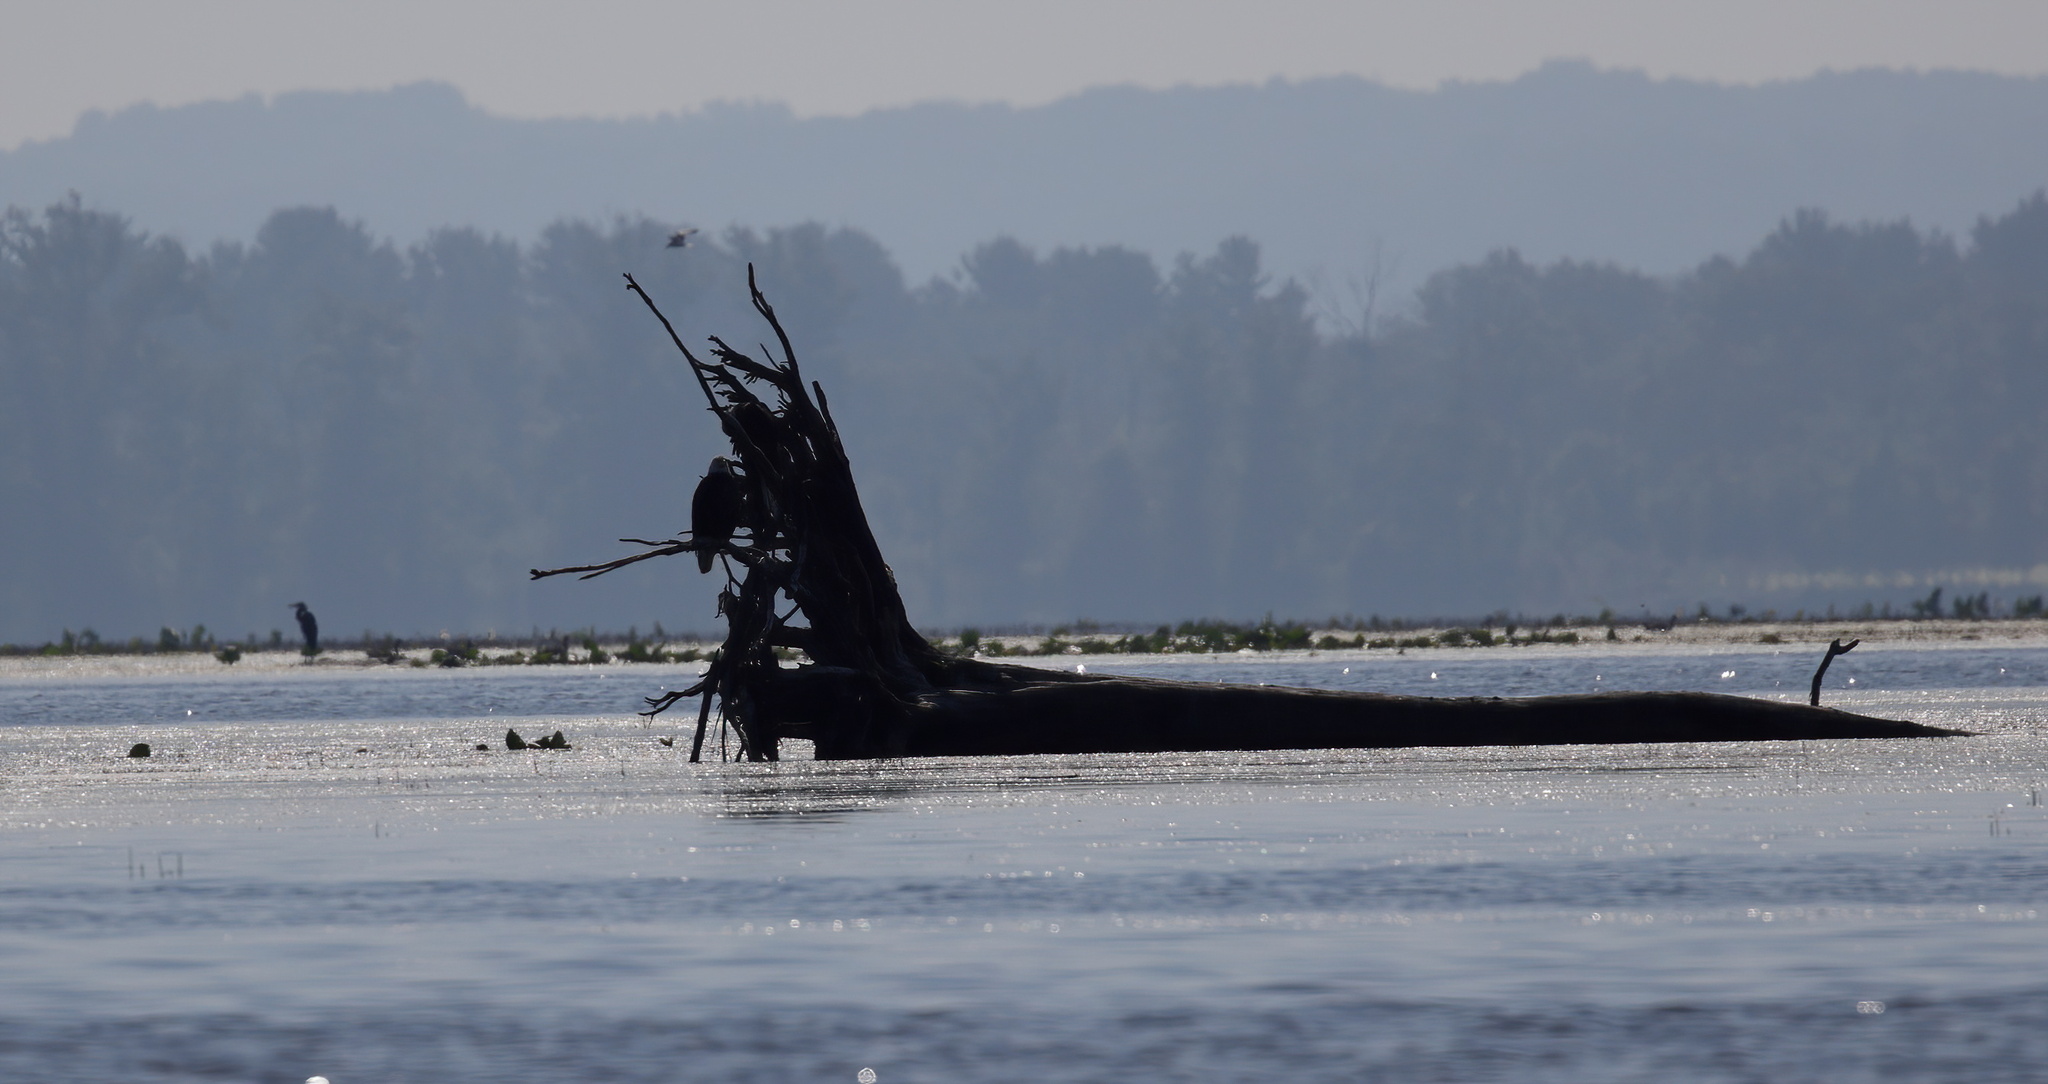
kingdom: Animalia
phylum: Chordata
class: Aves
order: Accipitriformes
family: Accipitridae
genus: Haliaeetus
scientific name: Haliaeetus leucocephalus
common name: Bald eagle
